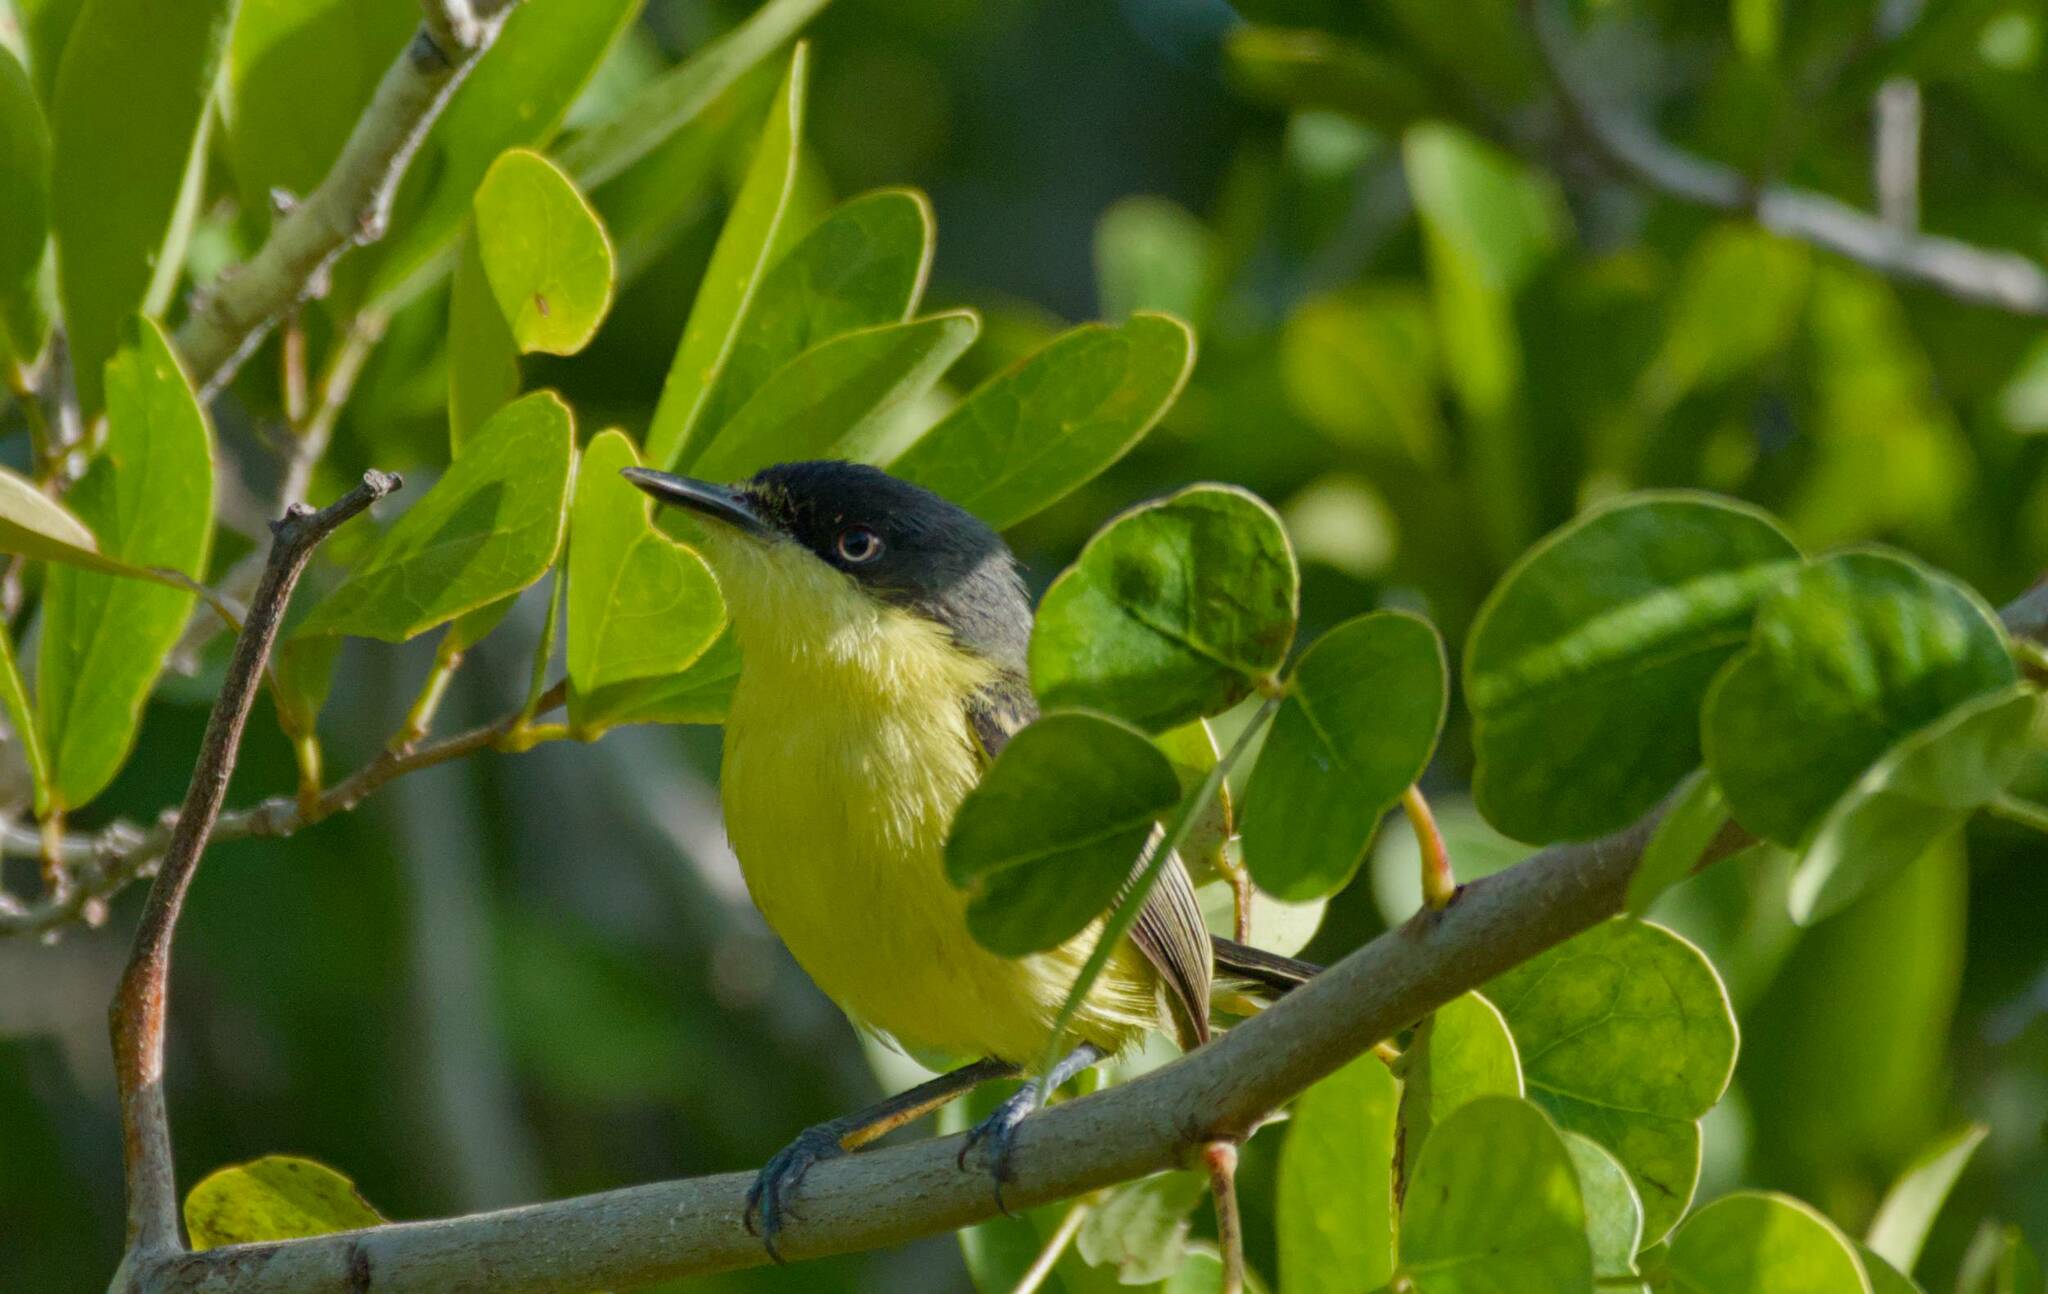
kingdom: Animalia
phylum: Chordata
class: Aves
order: Passeriformes
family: Tyrannidae
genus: Todirostrum
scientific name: Todirostrum cinereum
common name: Common tody-flycatcher
